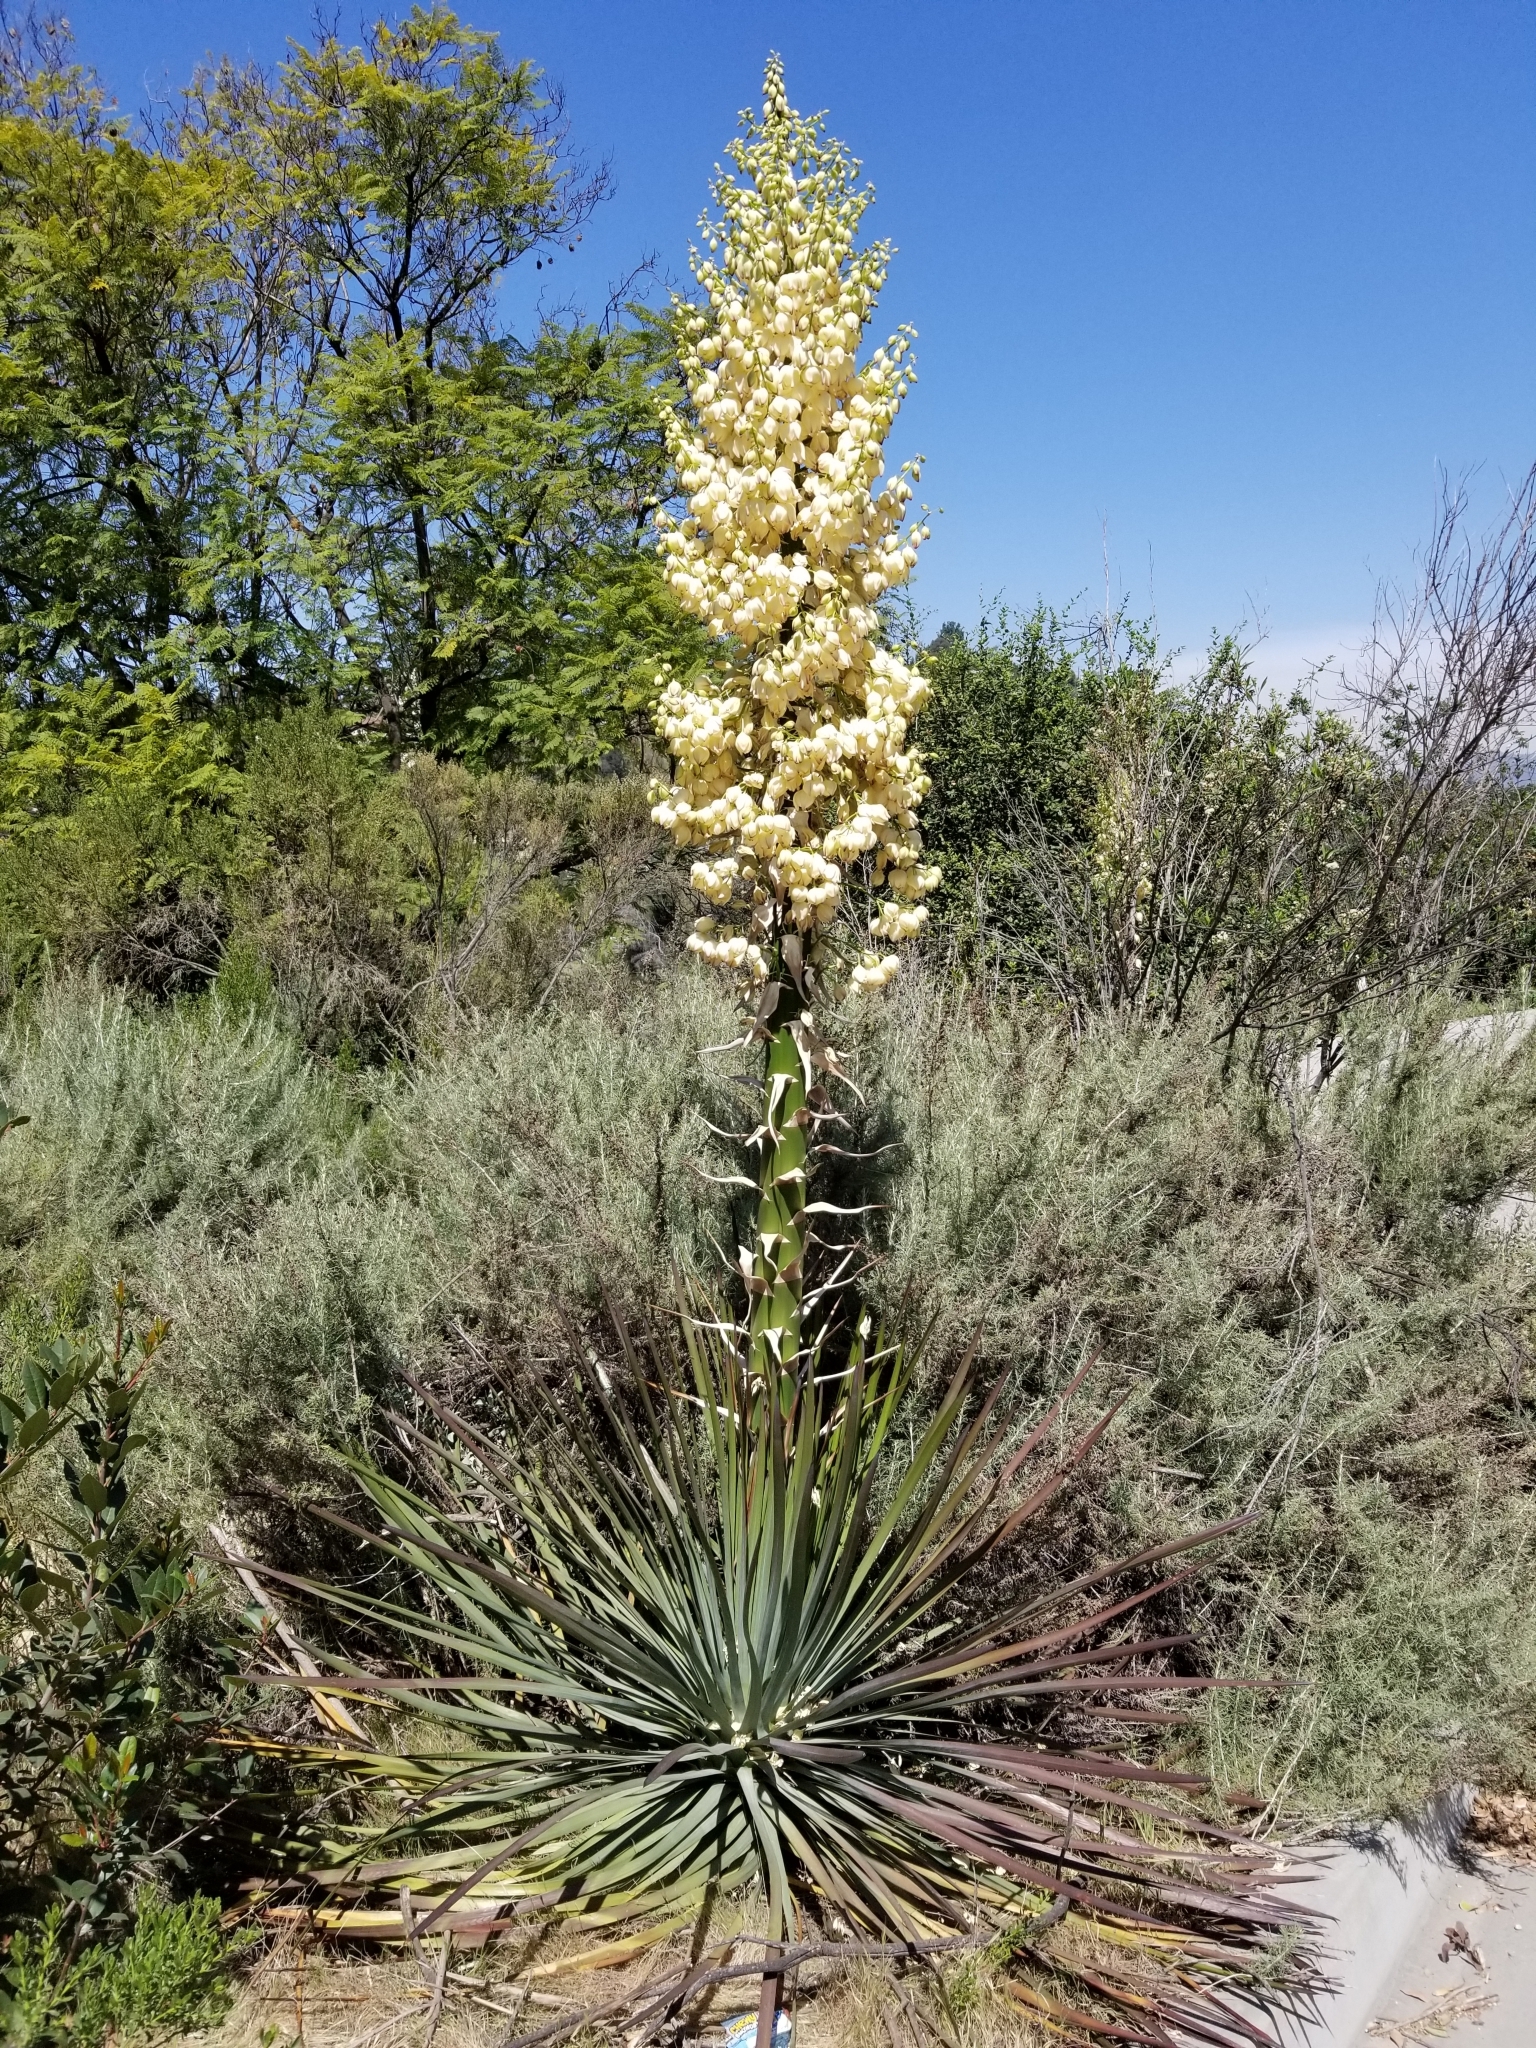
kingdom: Plantae
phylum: Tracheophyta
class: Liliopsida
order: Asparagales
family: Asparagaceae
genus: Hesperoyucca
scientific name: Hesperoyucca whipplei
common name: Our lord's-candle
